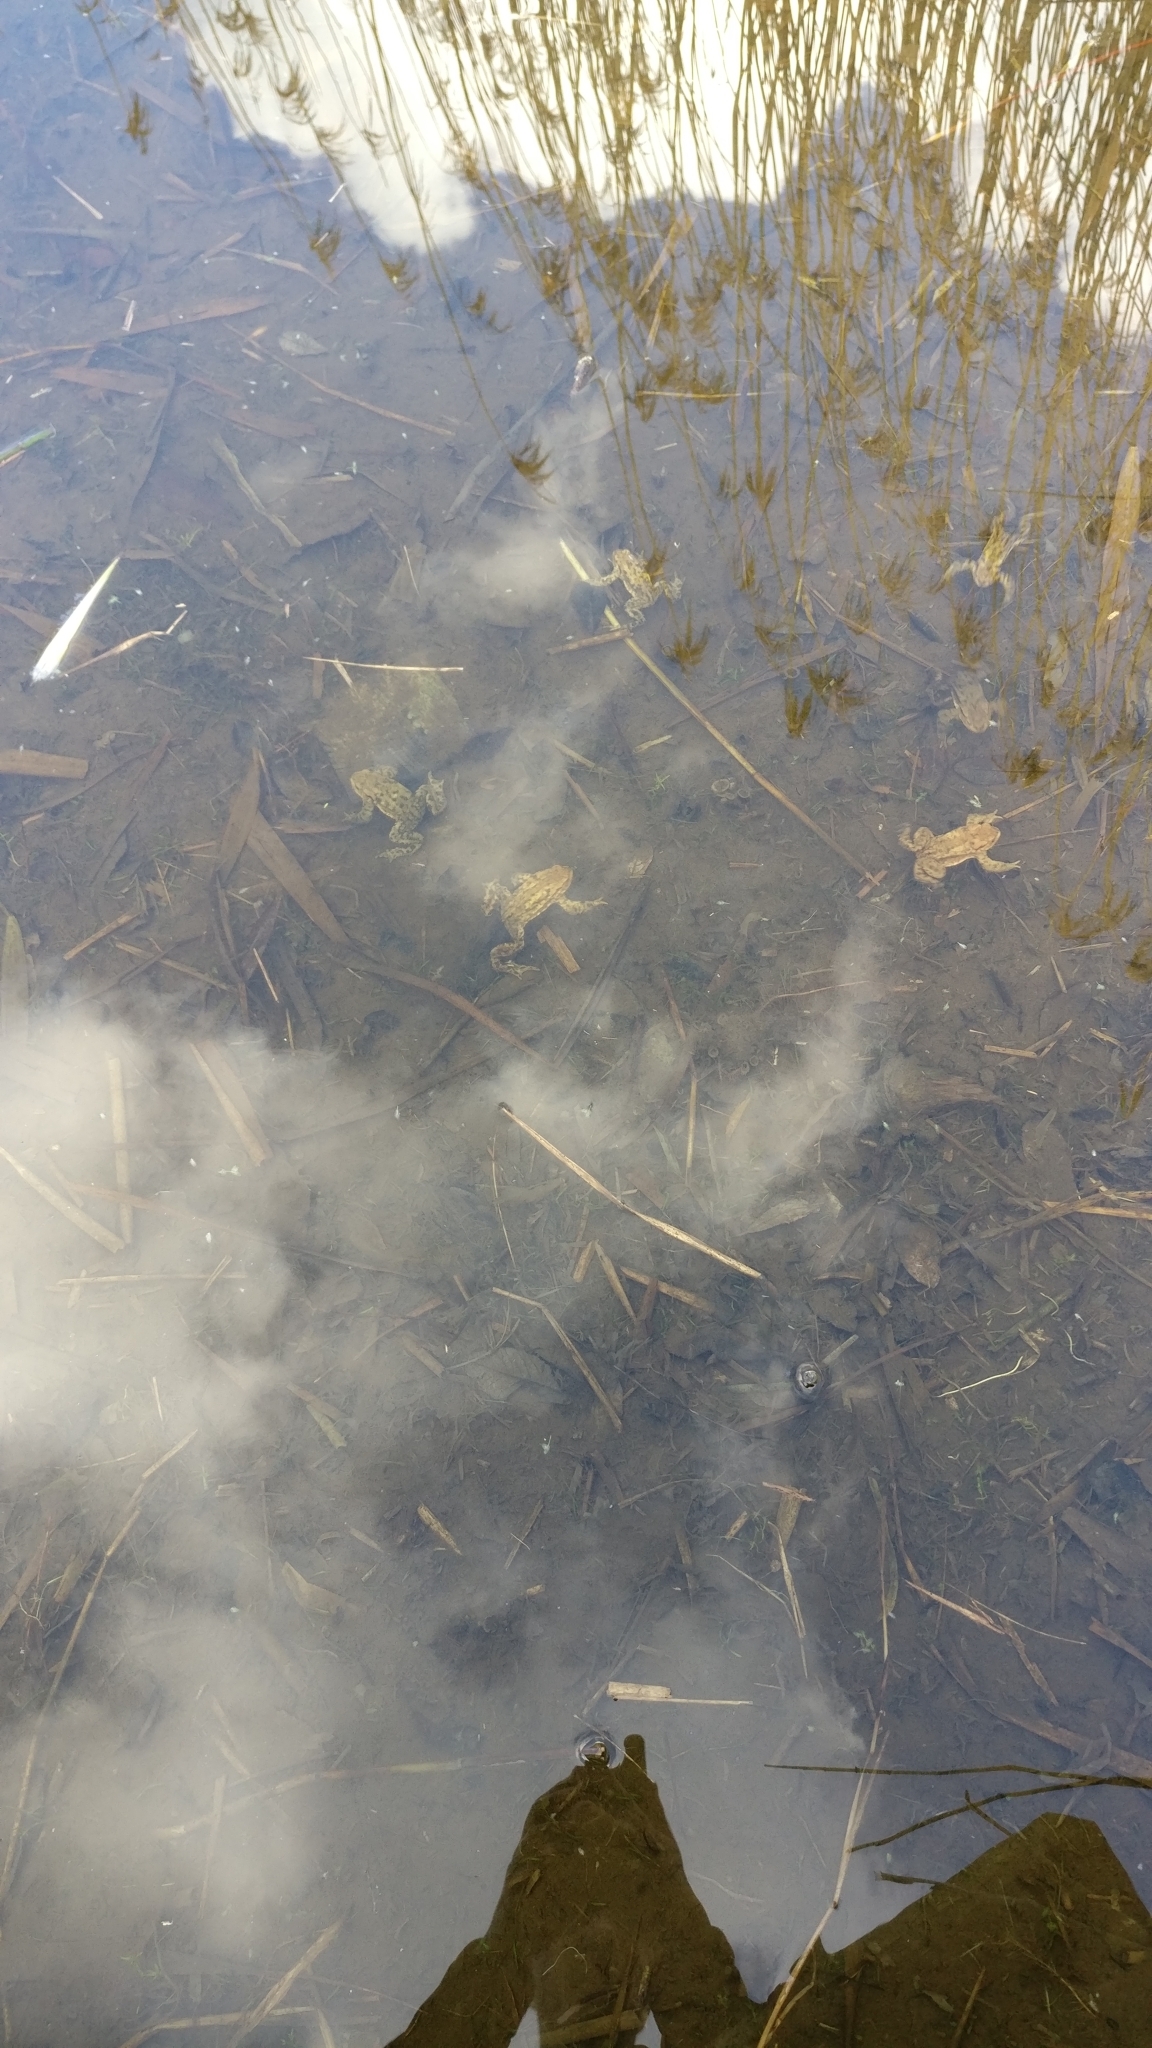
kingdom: Animalia
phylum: Chordata
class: Amphibia
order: Anura
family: Bufonidae
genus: Bufo
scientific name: Bufo bufo
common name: Common toad
